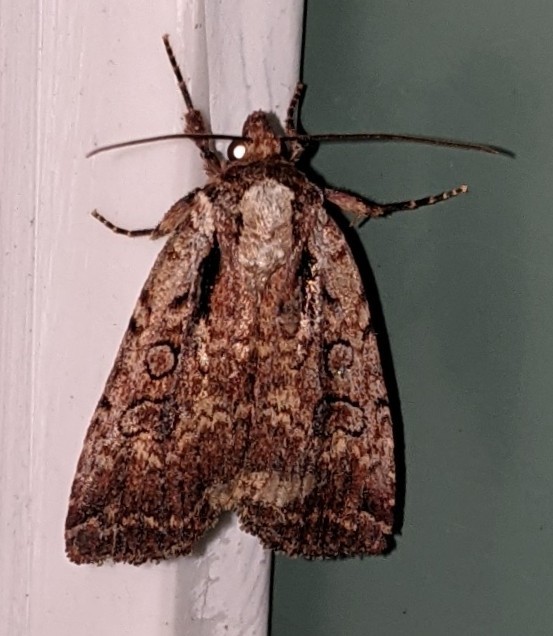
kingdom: Animalia
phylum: Arthropoda
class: Insecta
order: Lepidoptera
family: Noctuidae
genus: Eueretagrotis
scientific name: Eueretagrotis attentus
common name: Attentive dart
